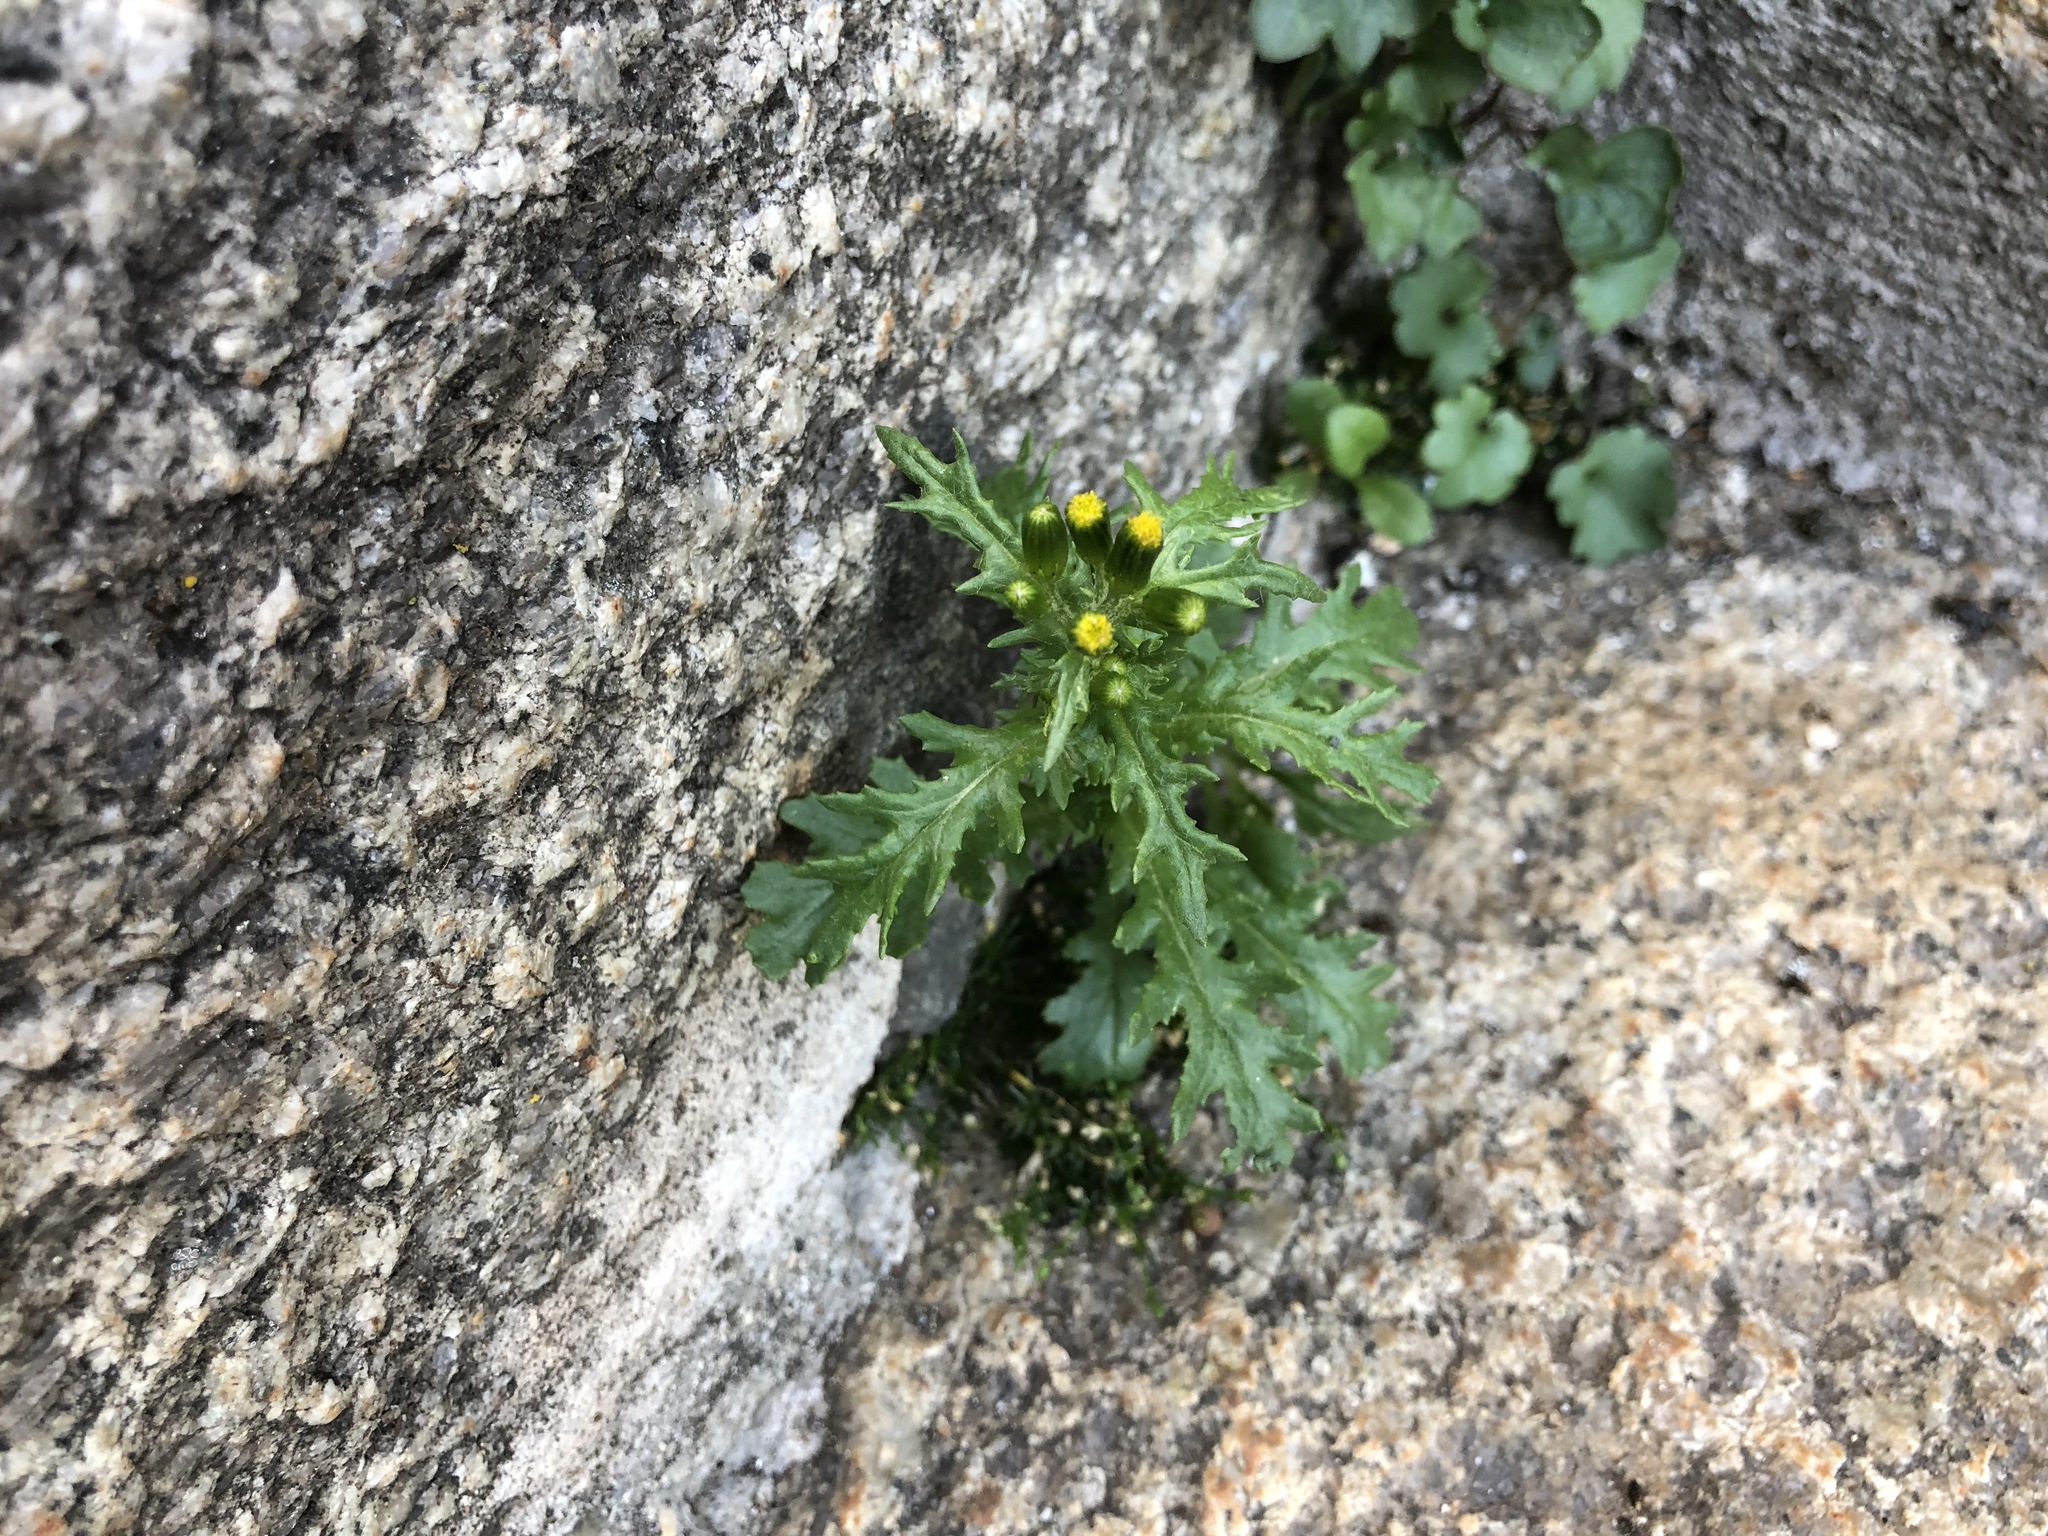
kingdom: Plantae
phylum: Tracheophyta
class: Magnoliopsida
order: Asterales
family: Asteraceae
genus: Senecio
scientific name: Senecio vulgaris
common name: Old-man-in-the-spring
